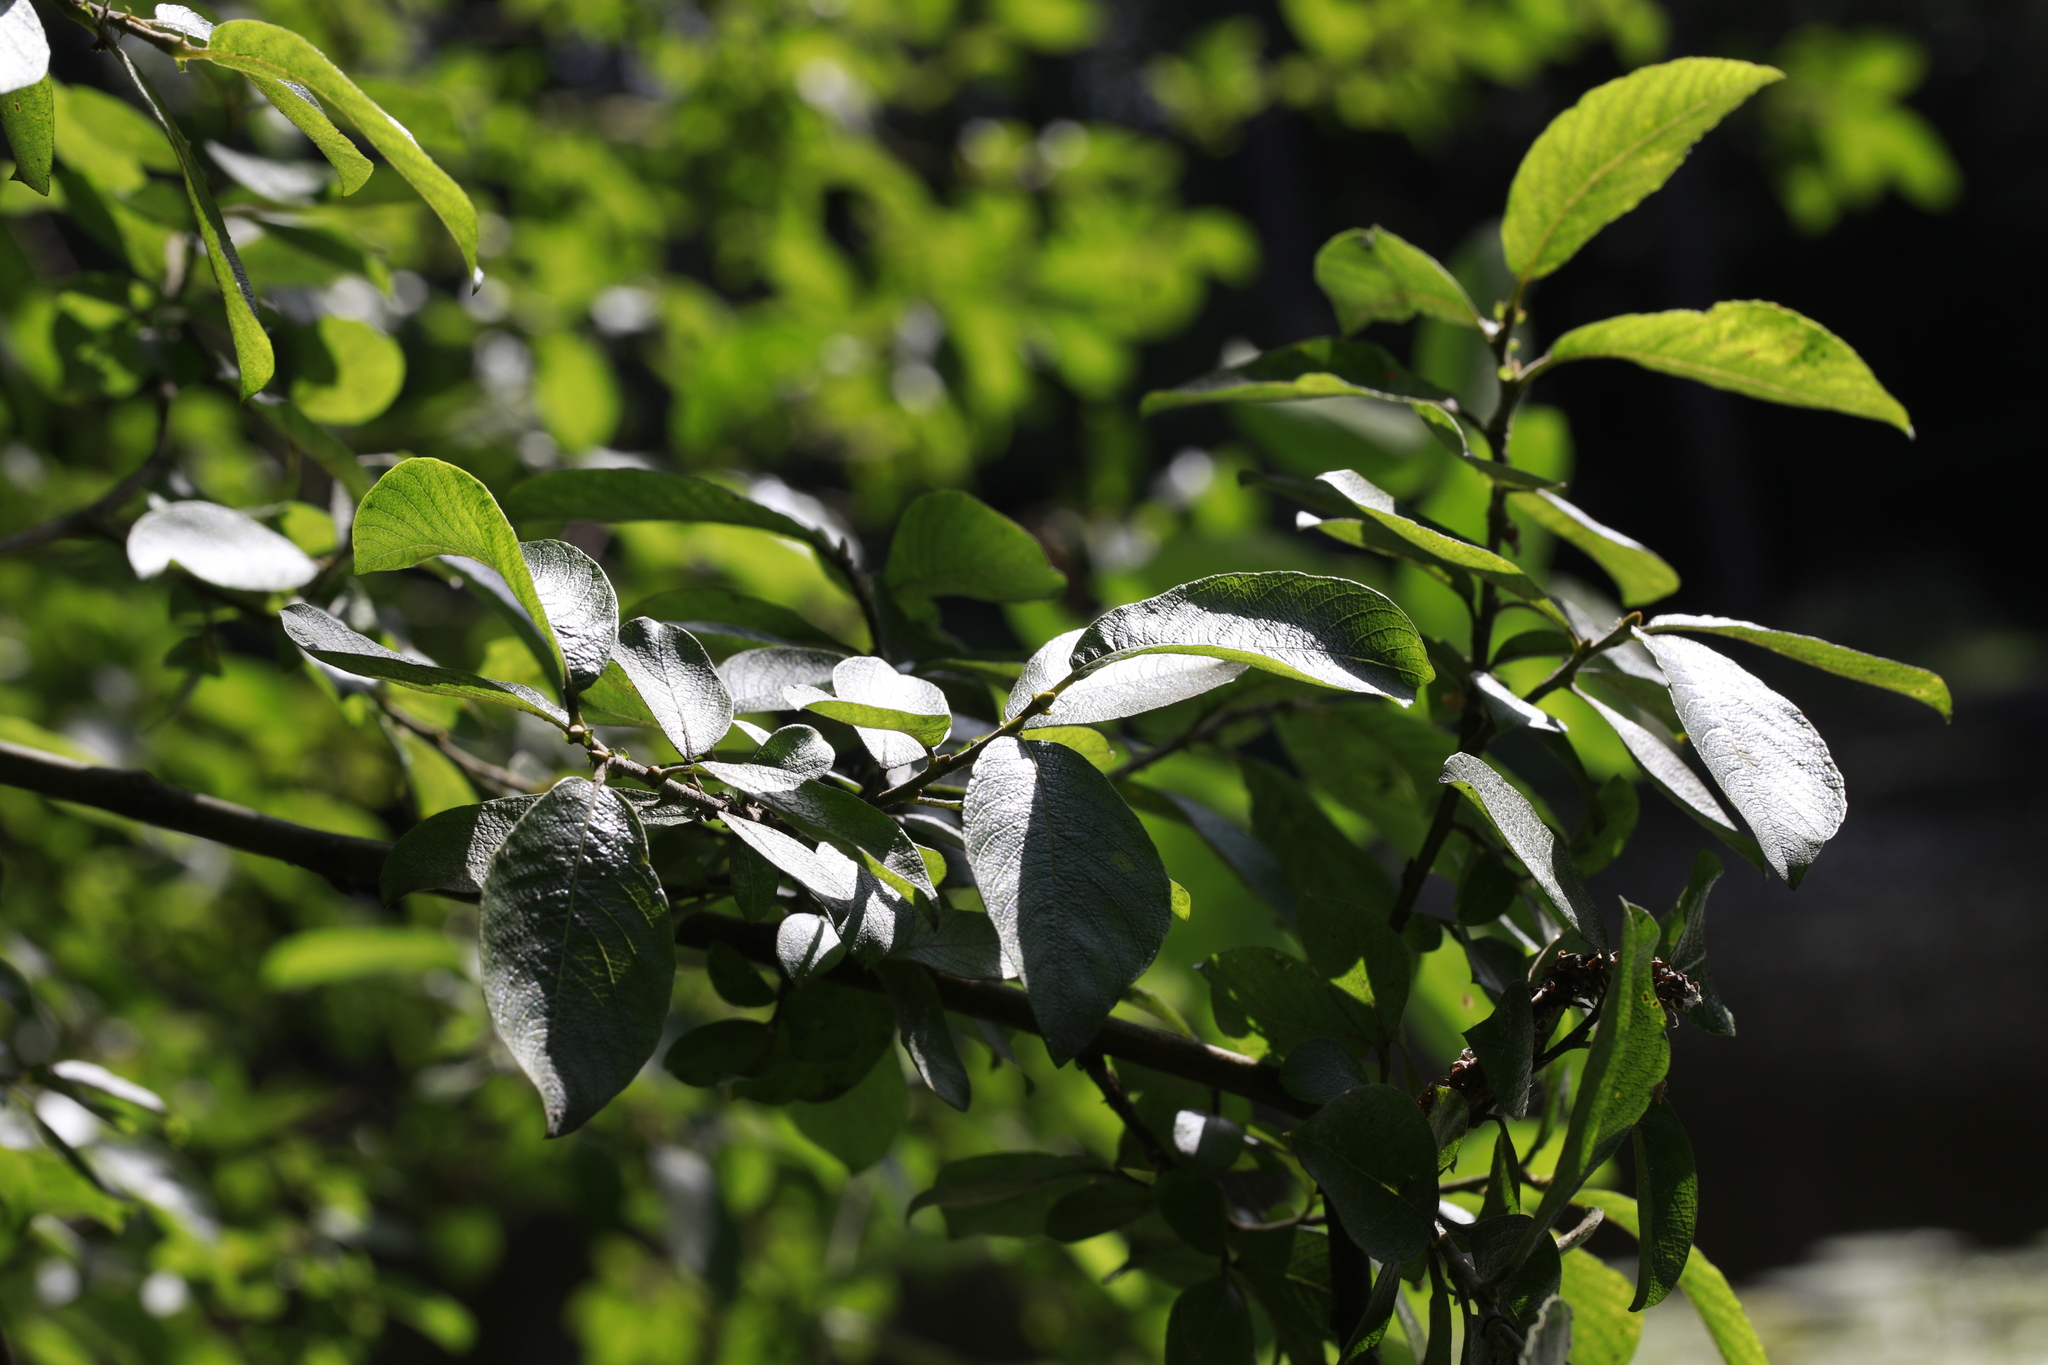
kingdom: Plantae
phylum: Tracheophyta
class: Magnoliopsida
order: Malpighiales
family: Salicaceae
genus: Salix
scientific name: Salix cinerea
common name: Common sallow
